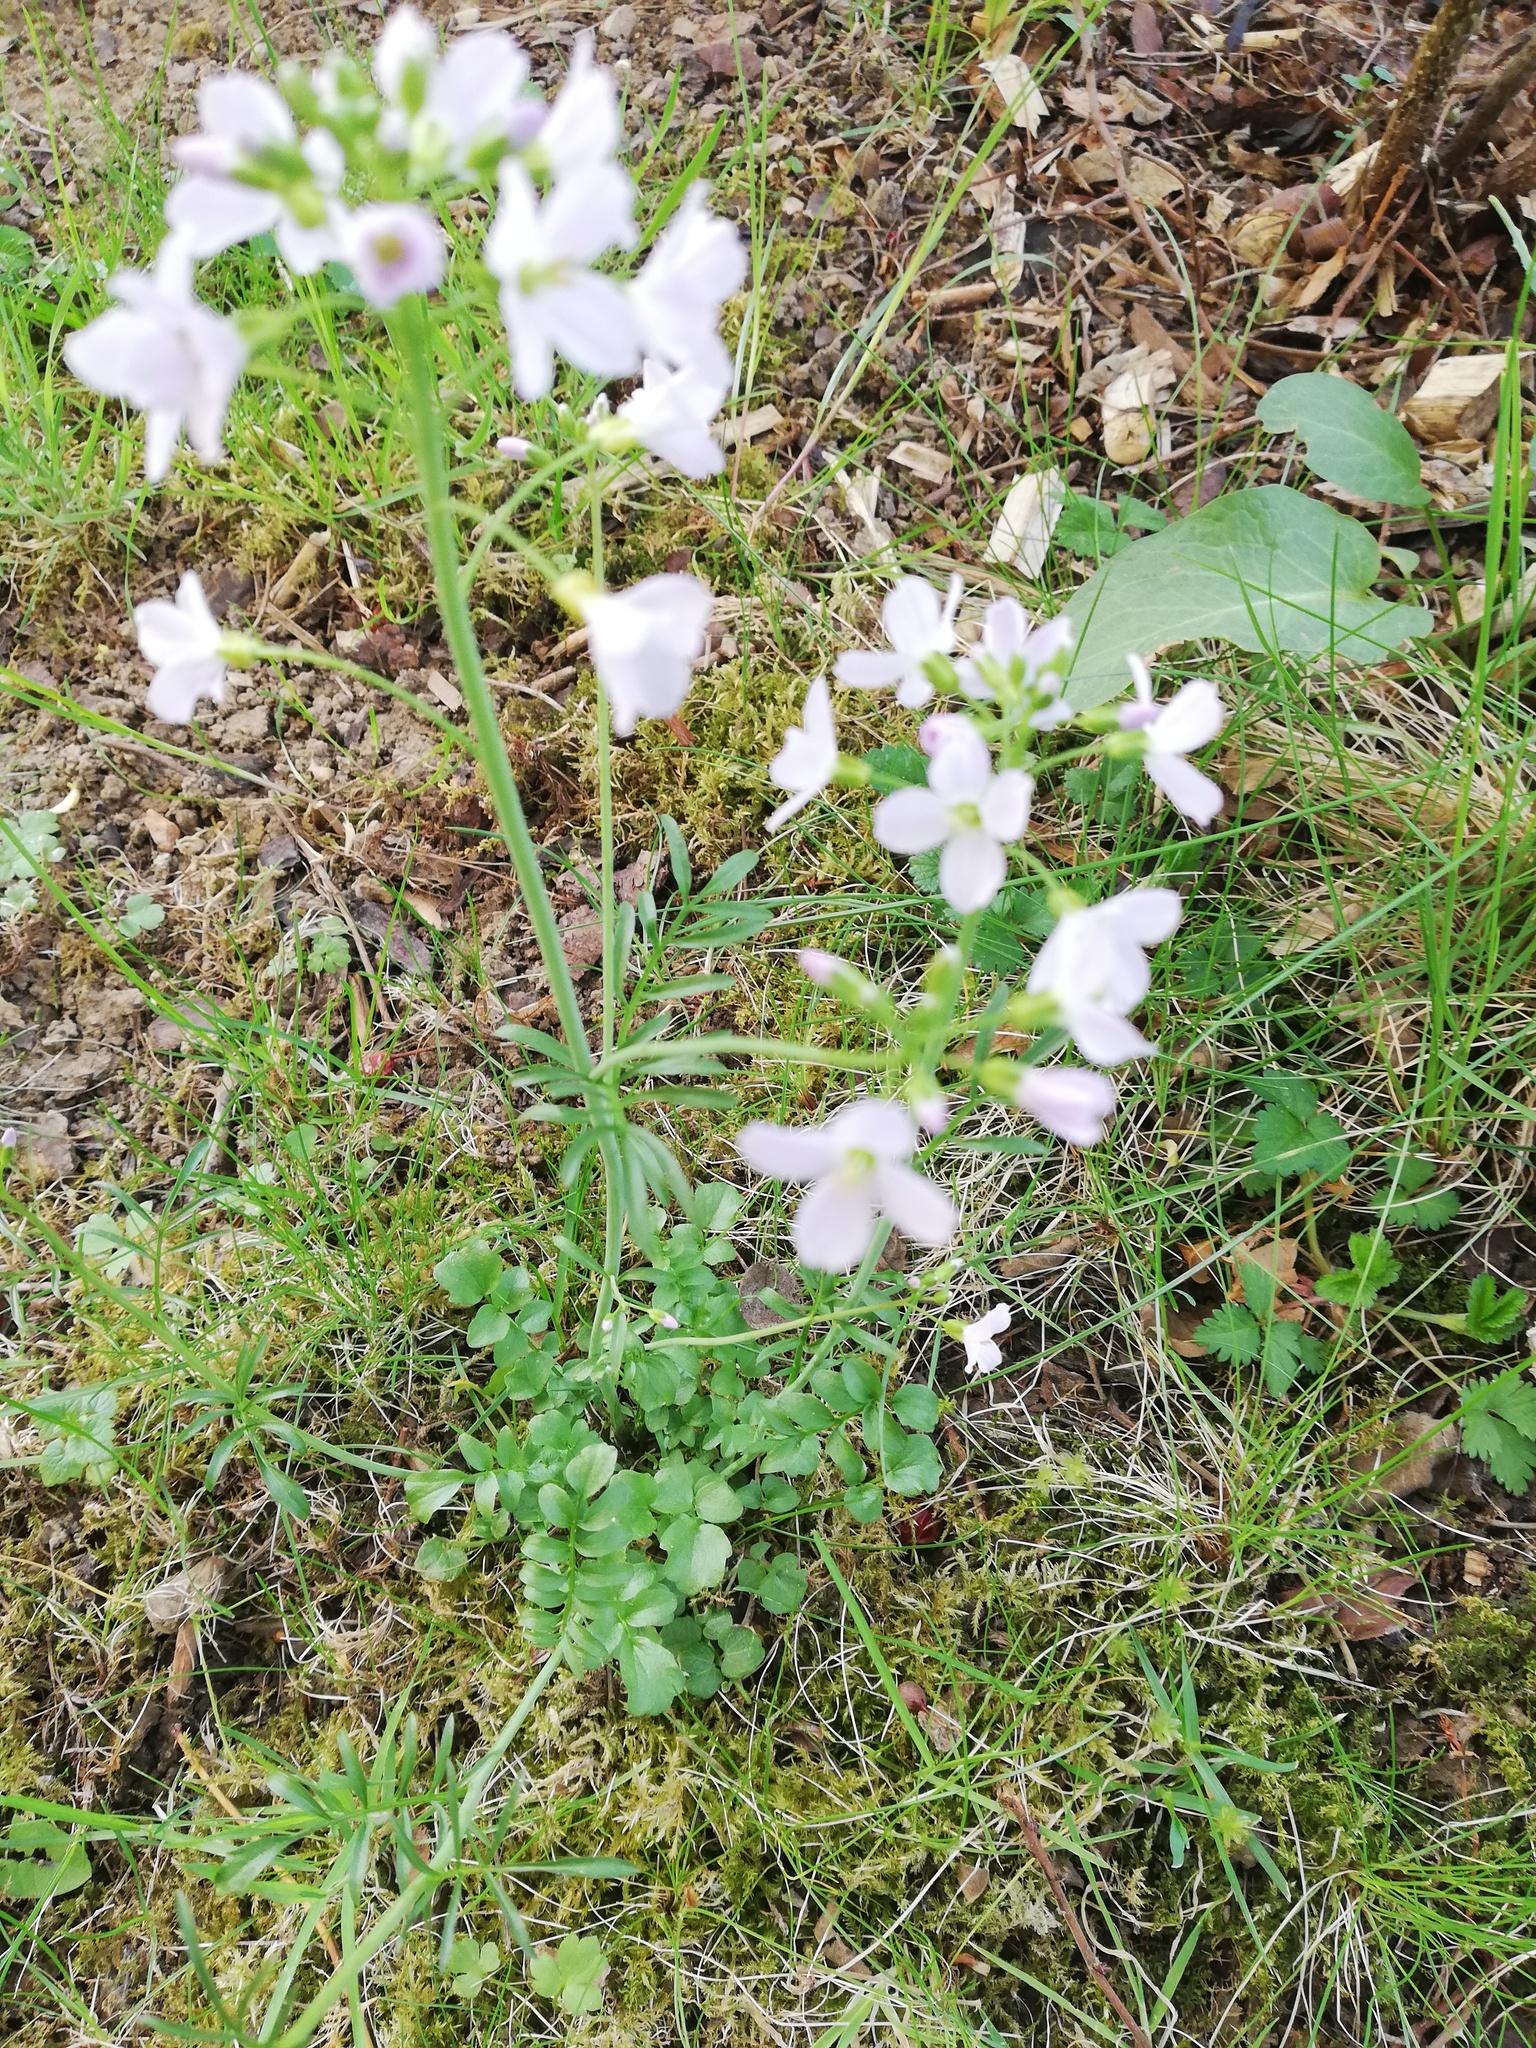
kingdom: Plantae
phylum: Tracheophyta
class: Magnoliopsida
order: Brassicales
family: Brassicaceae
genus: Cardamine
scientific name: Cardamine pratensis
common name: Cuckoo flower
